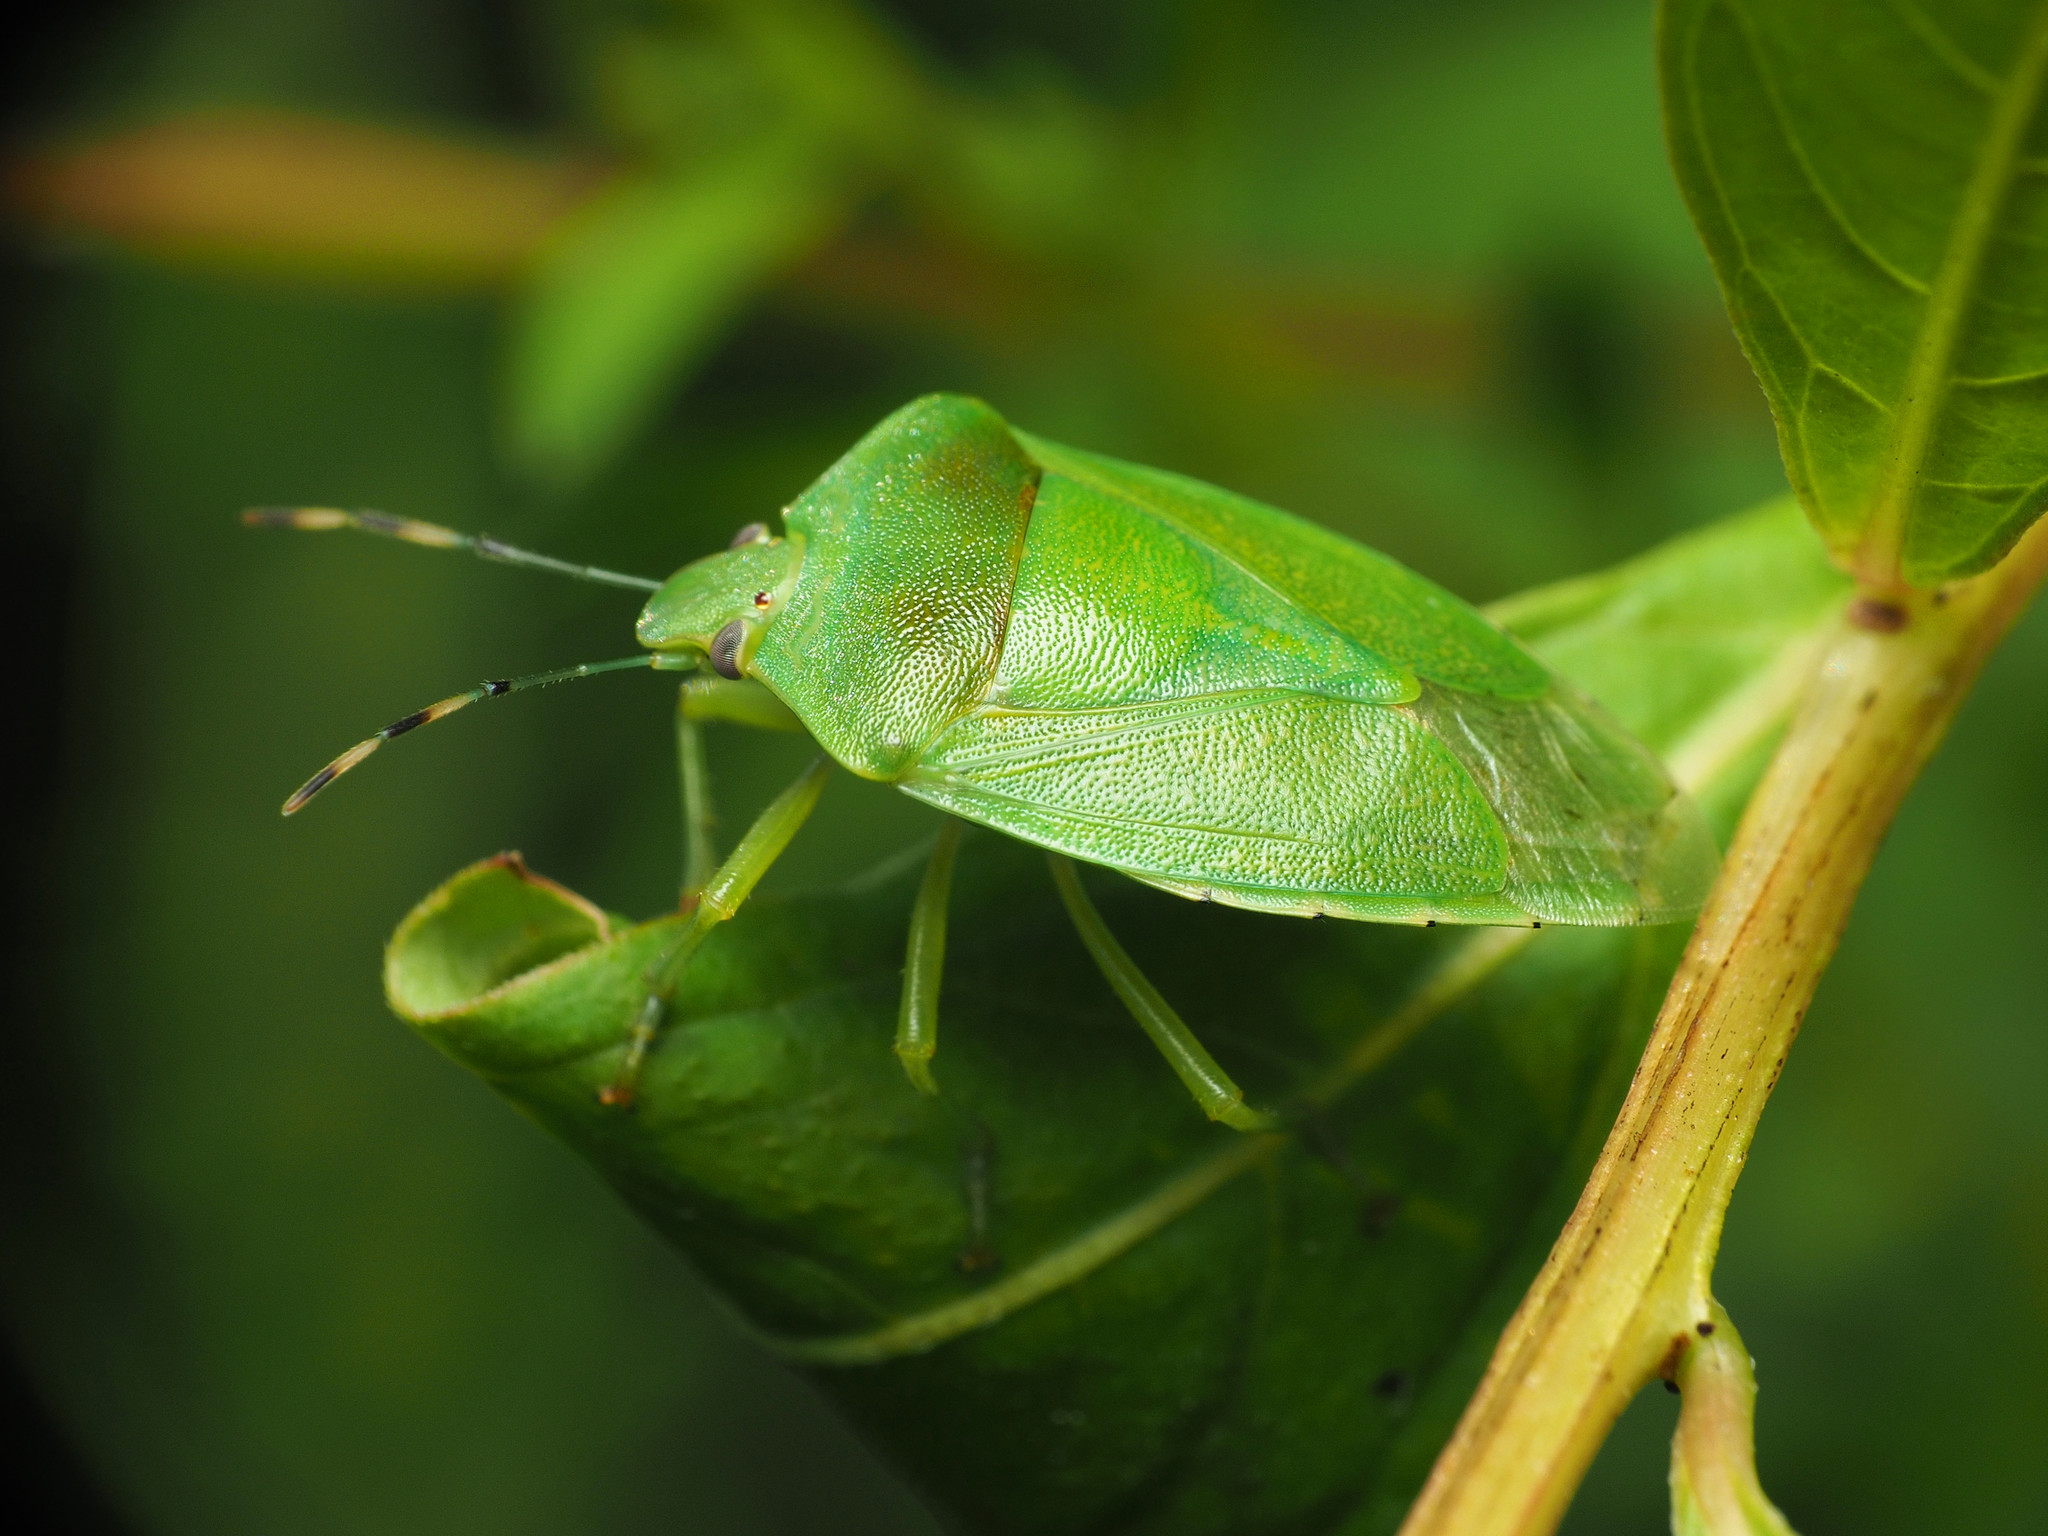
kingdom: Animalia
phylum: Arthropoda
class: Insecta
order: Hemiptera
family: Pentatomidae
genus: Chinavia
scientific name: Chinavia hilaris
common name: Green stink bug
